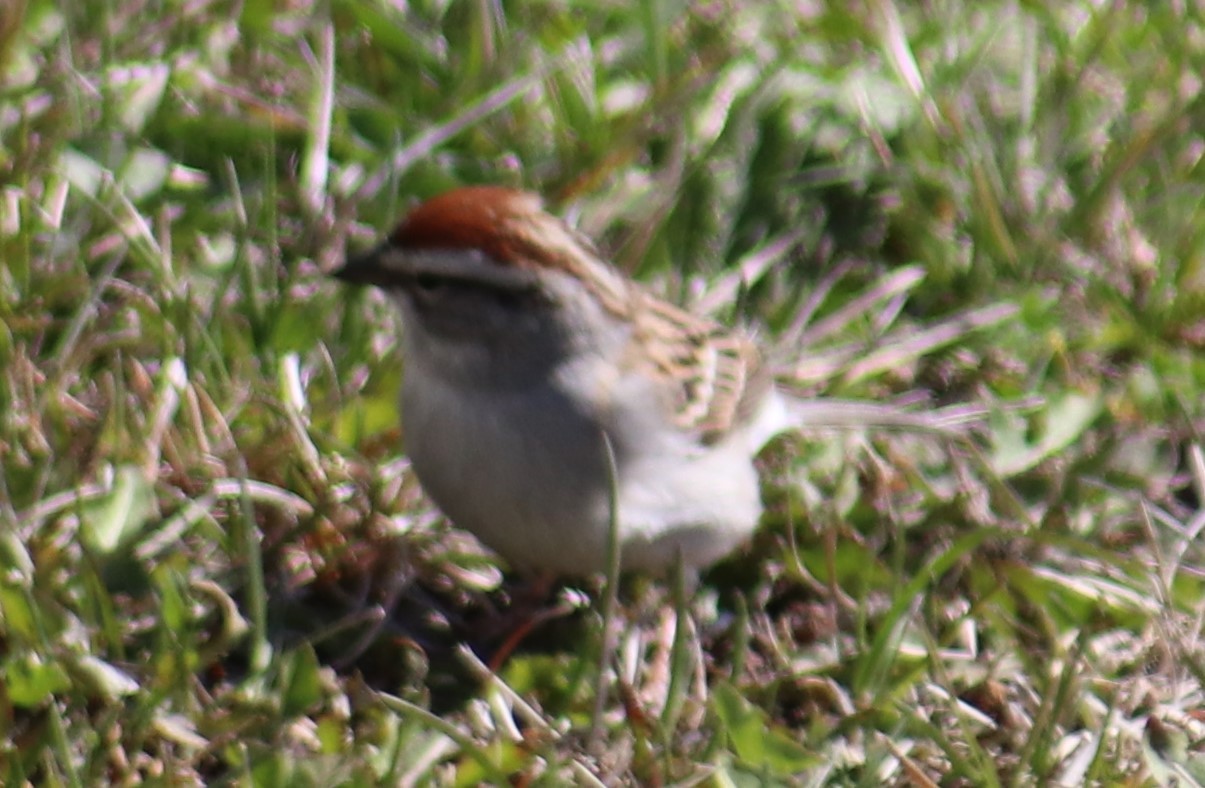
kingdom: Animalia
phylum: Chordata
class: Aves
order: Passeriformes
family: Passerellidae
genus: Spizella
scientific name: Spizella passerina
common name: Chipping sparrow
